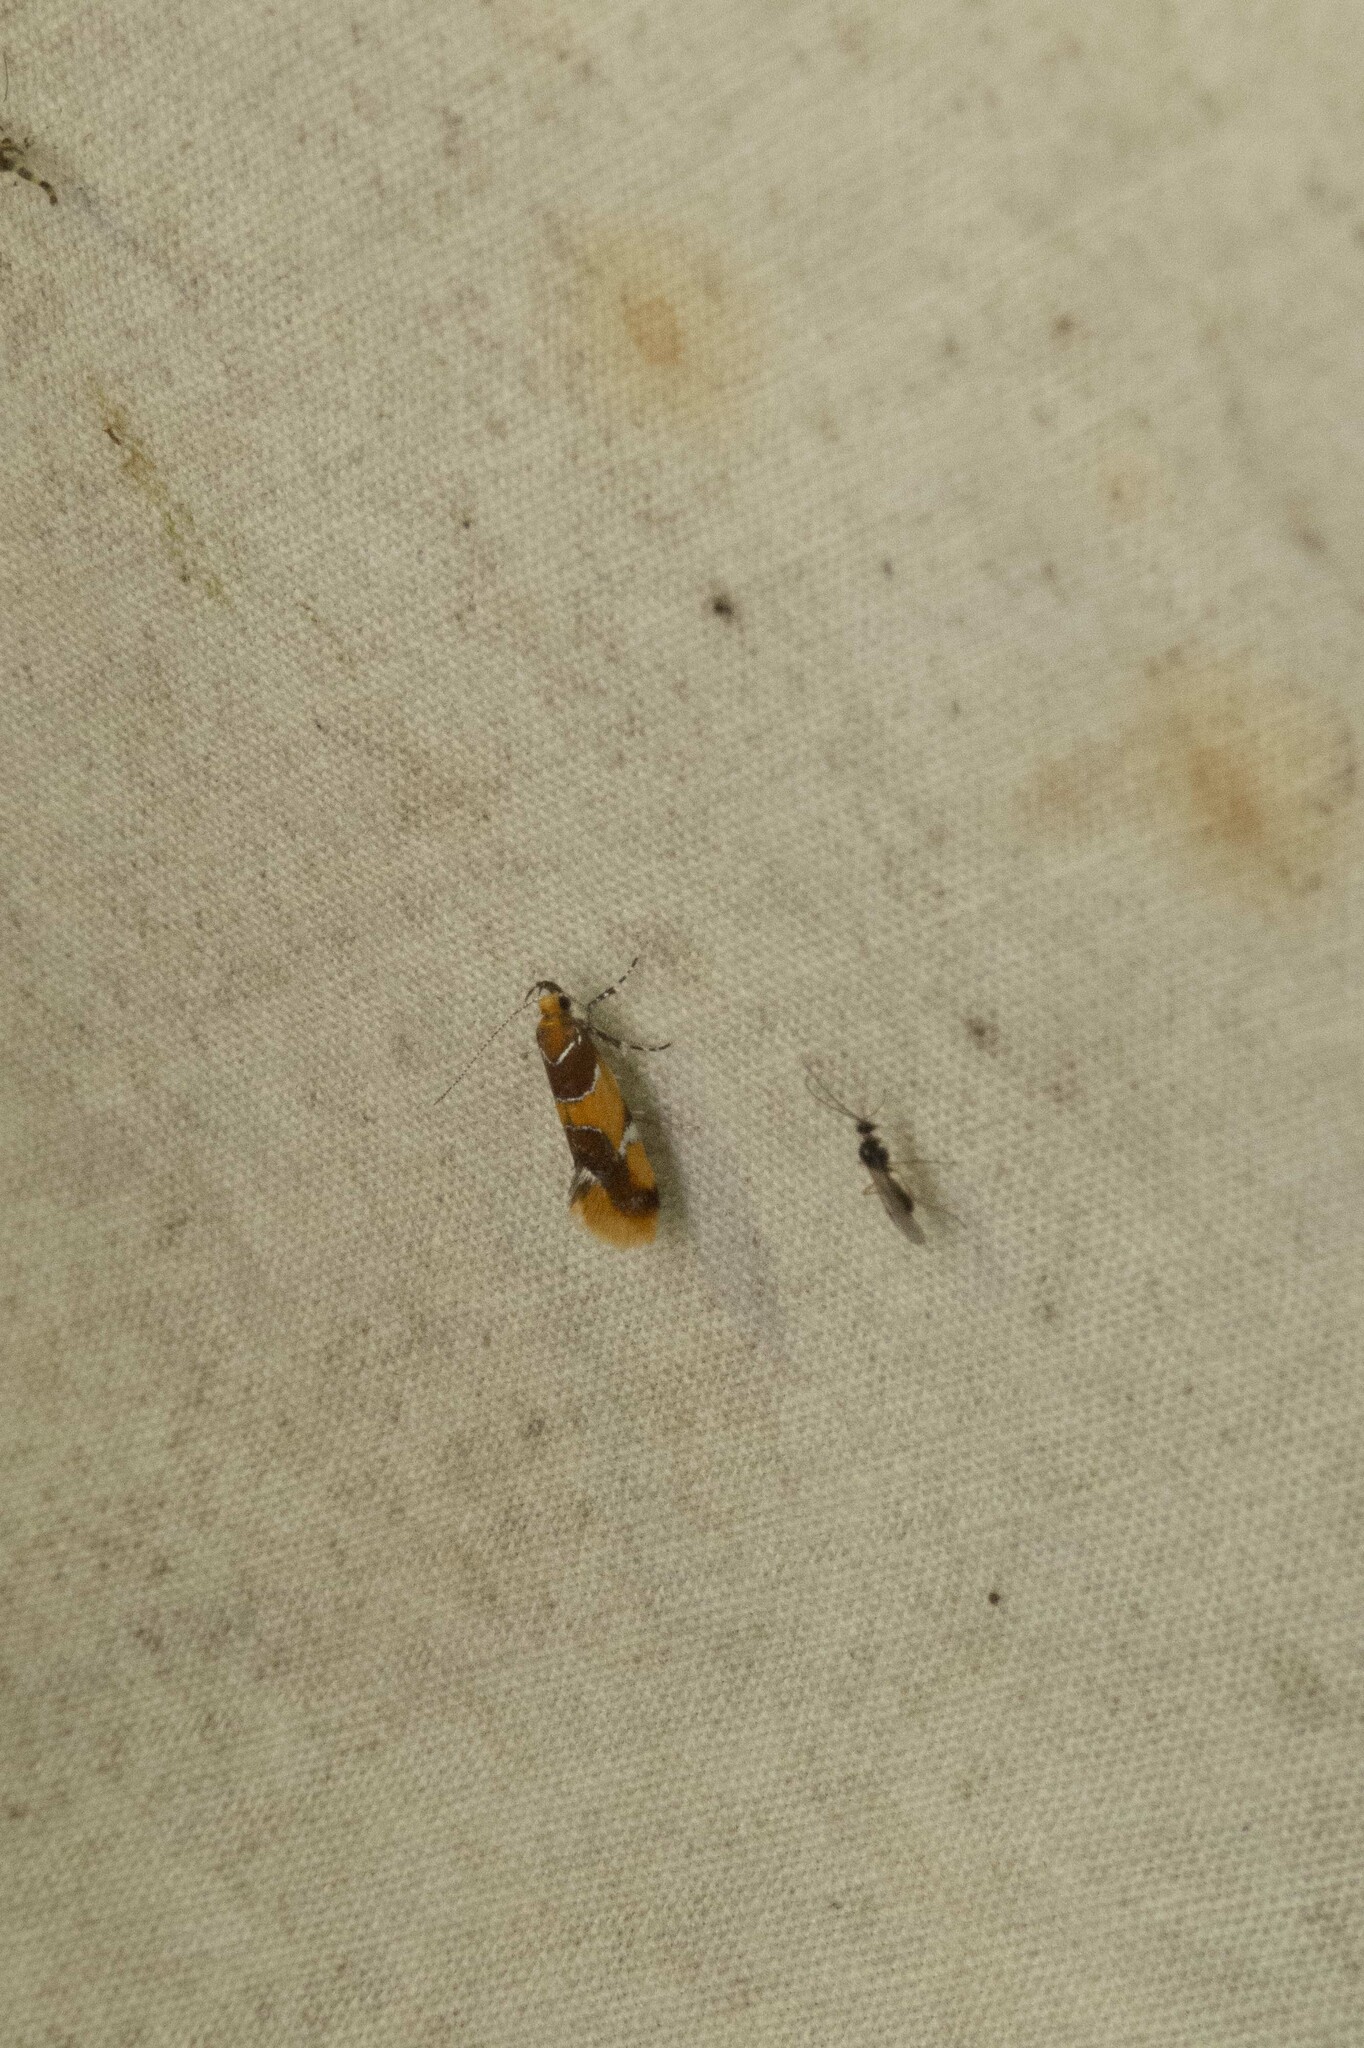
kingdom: Animalia
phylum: Arthropoda
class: Insecta
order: Lepidoptera
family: Oecophoridae
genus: Callima
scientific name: Callima argenticinctella
